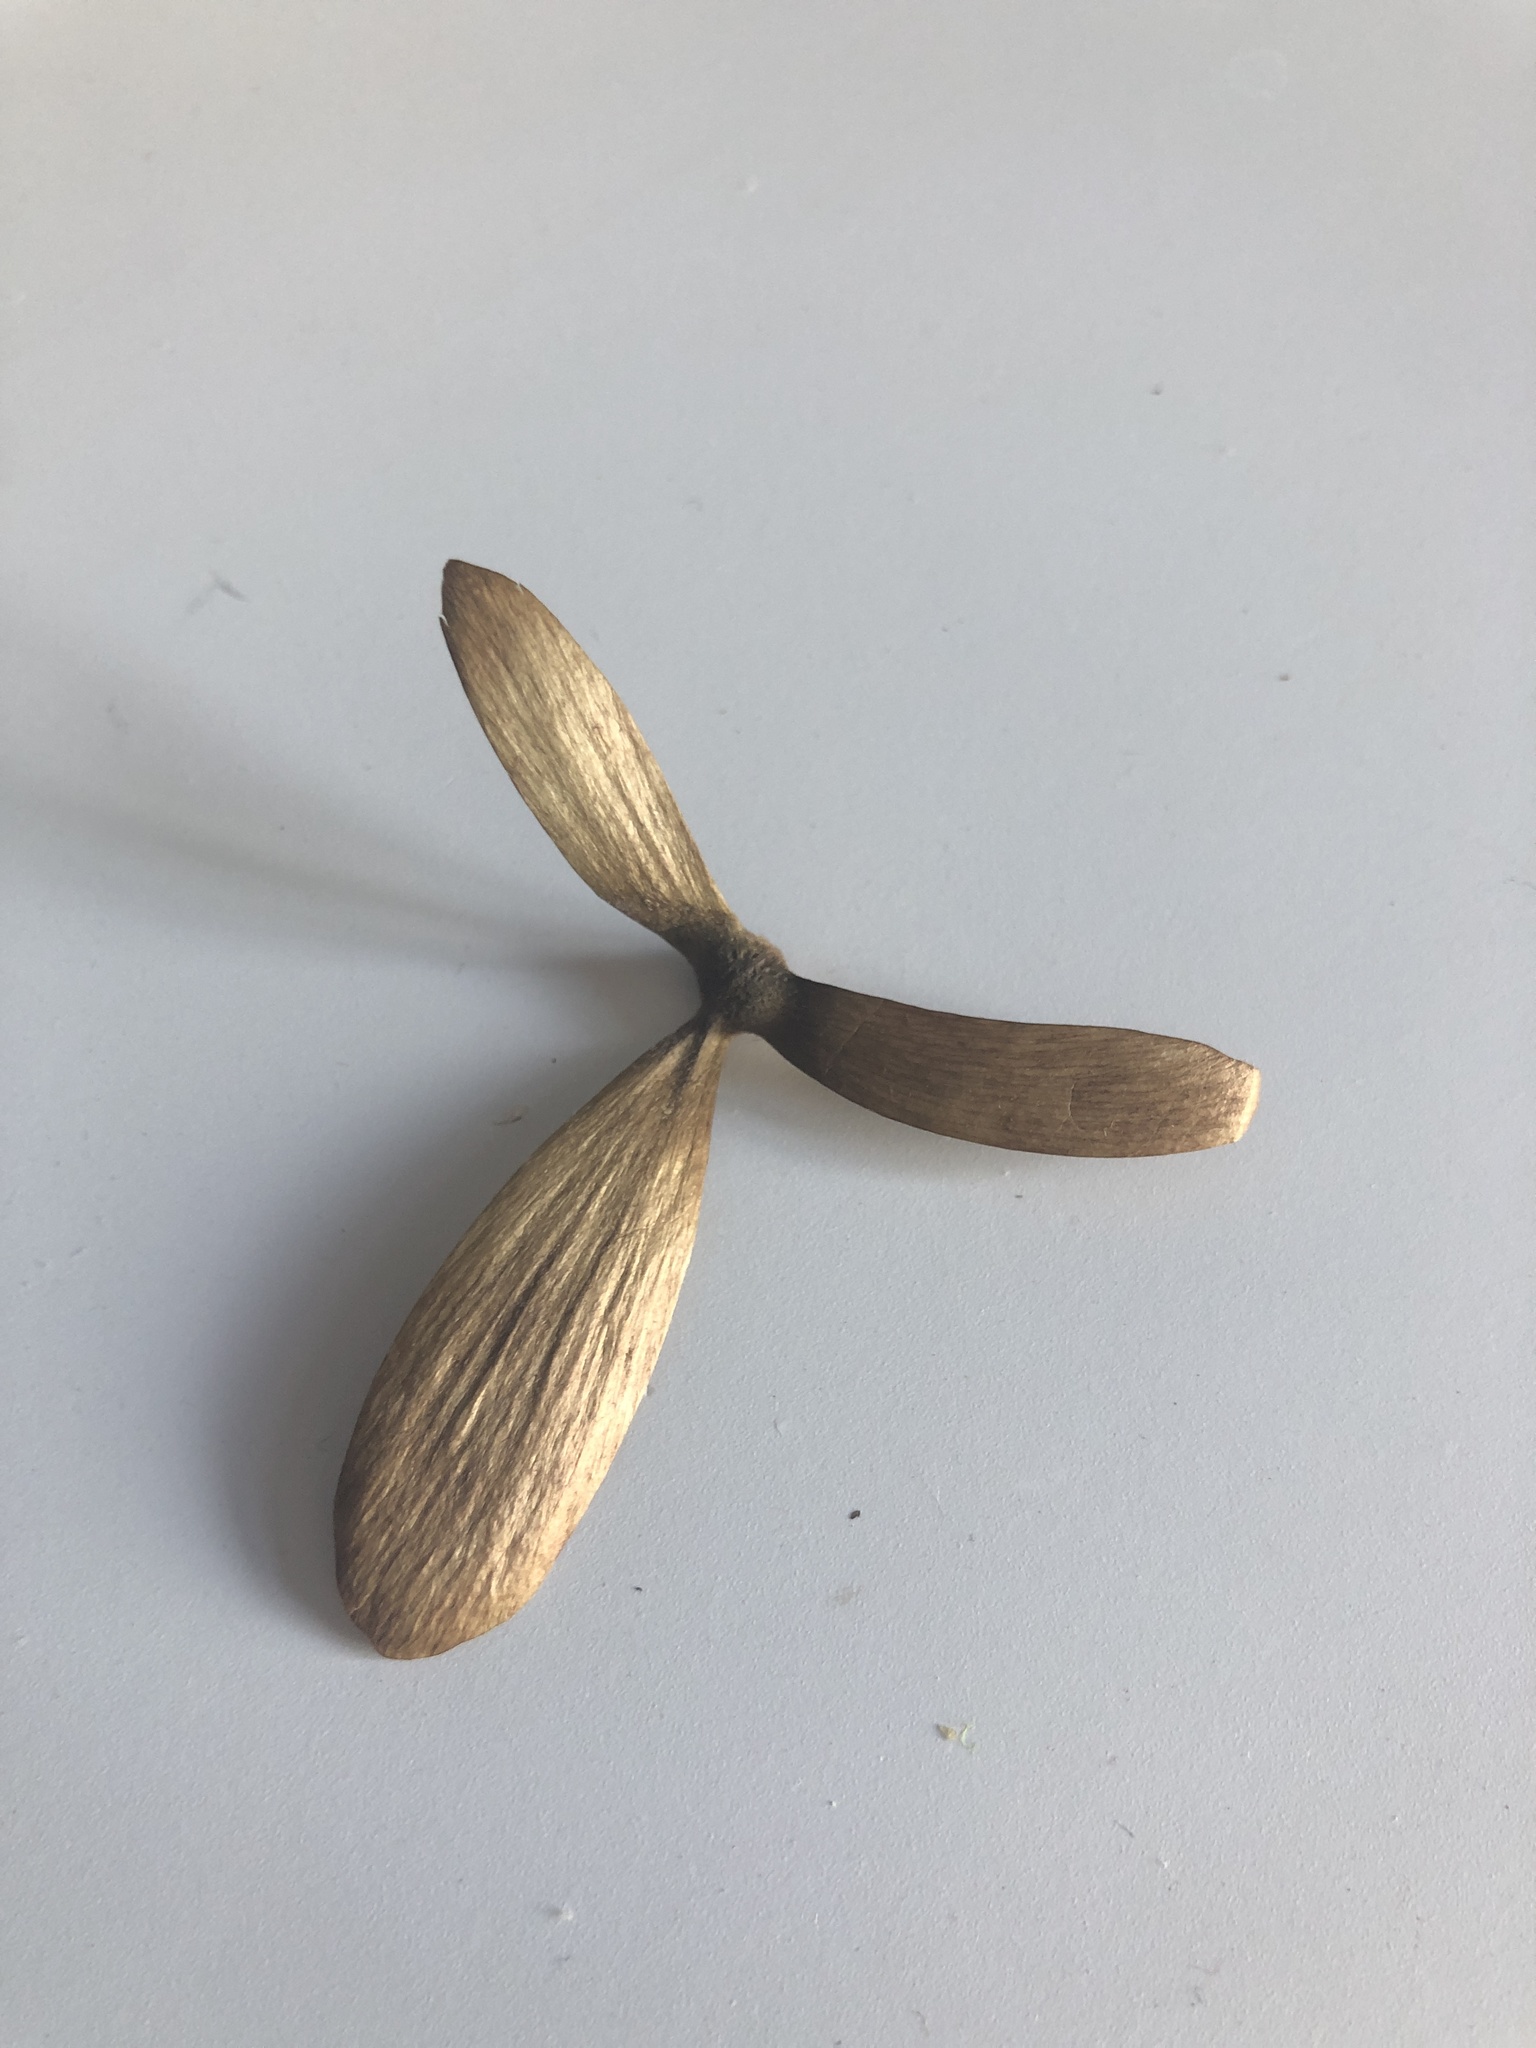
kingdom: Plantae
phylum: Tracheophyta
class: Magnoliopsida
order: Malpighiales
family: Malpighiaceae
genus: Hiptage
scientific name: Hiptage benghalensis
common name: Hiptage
